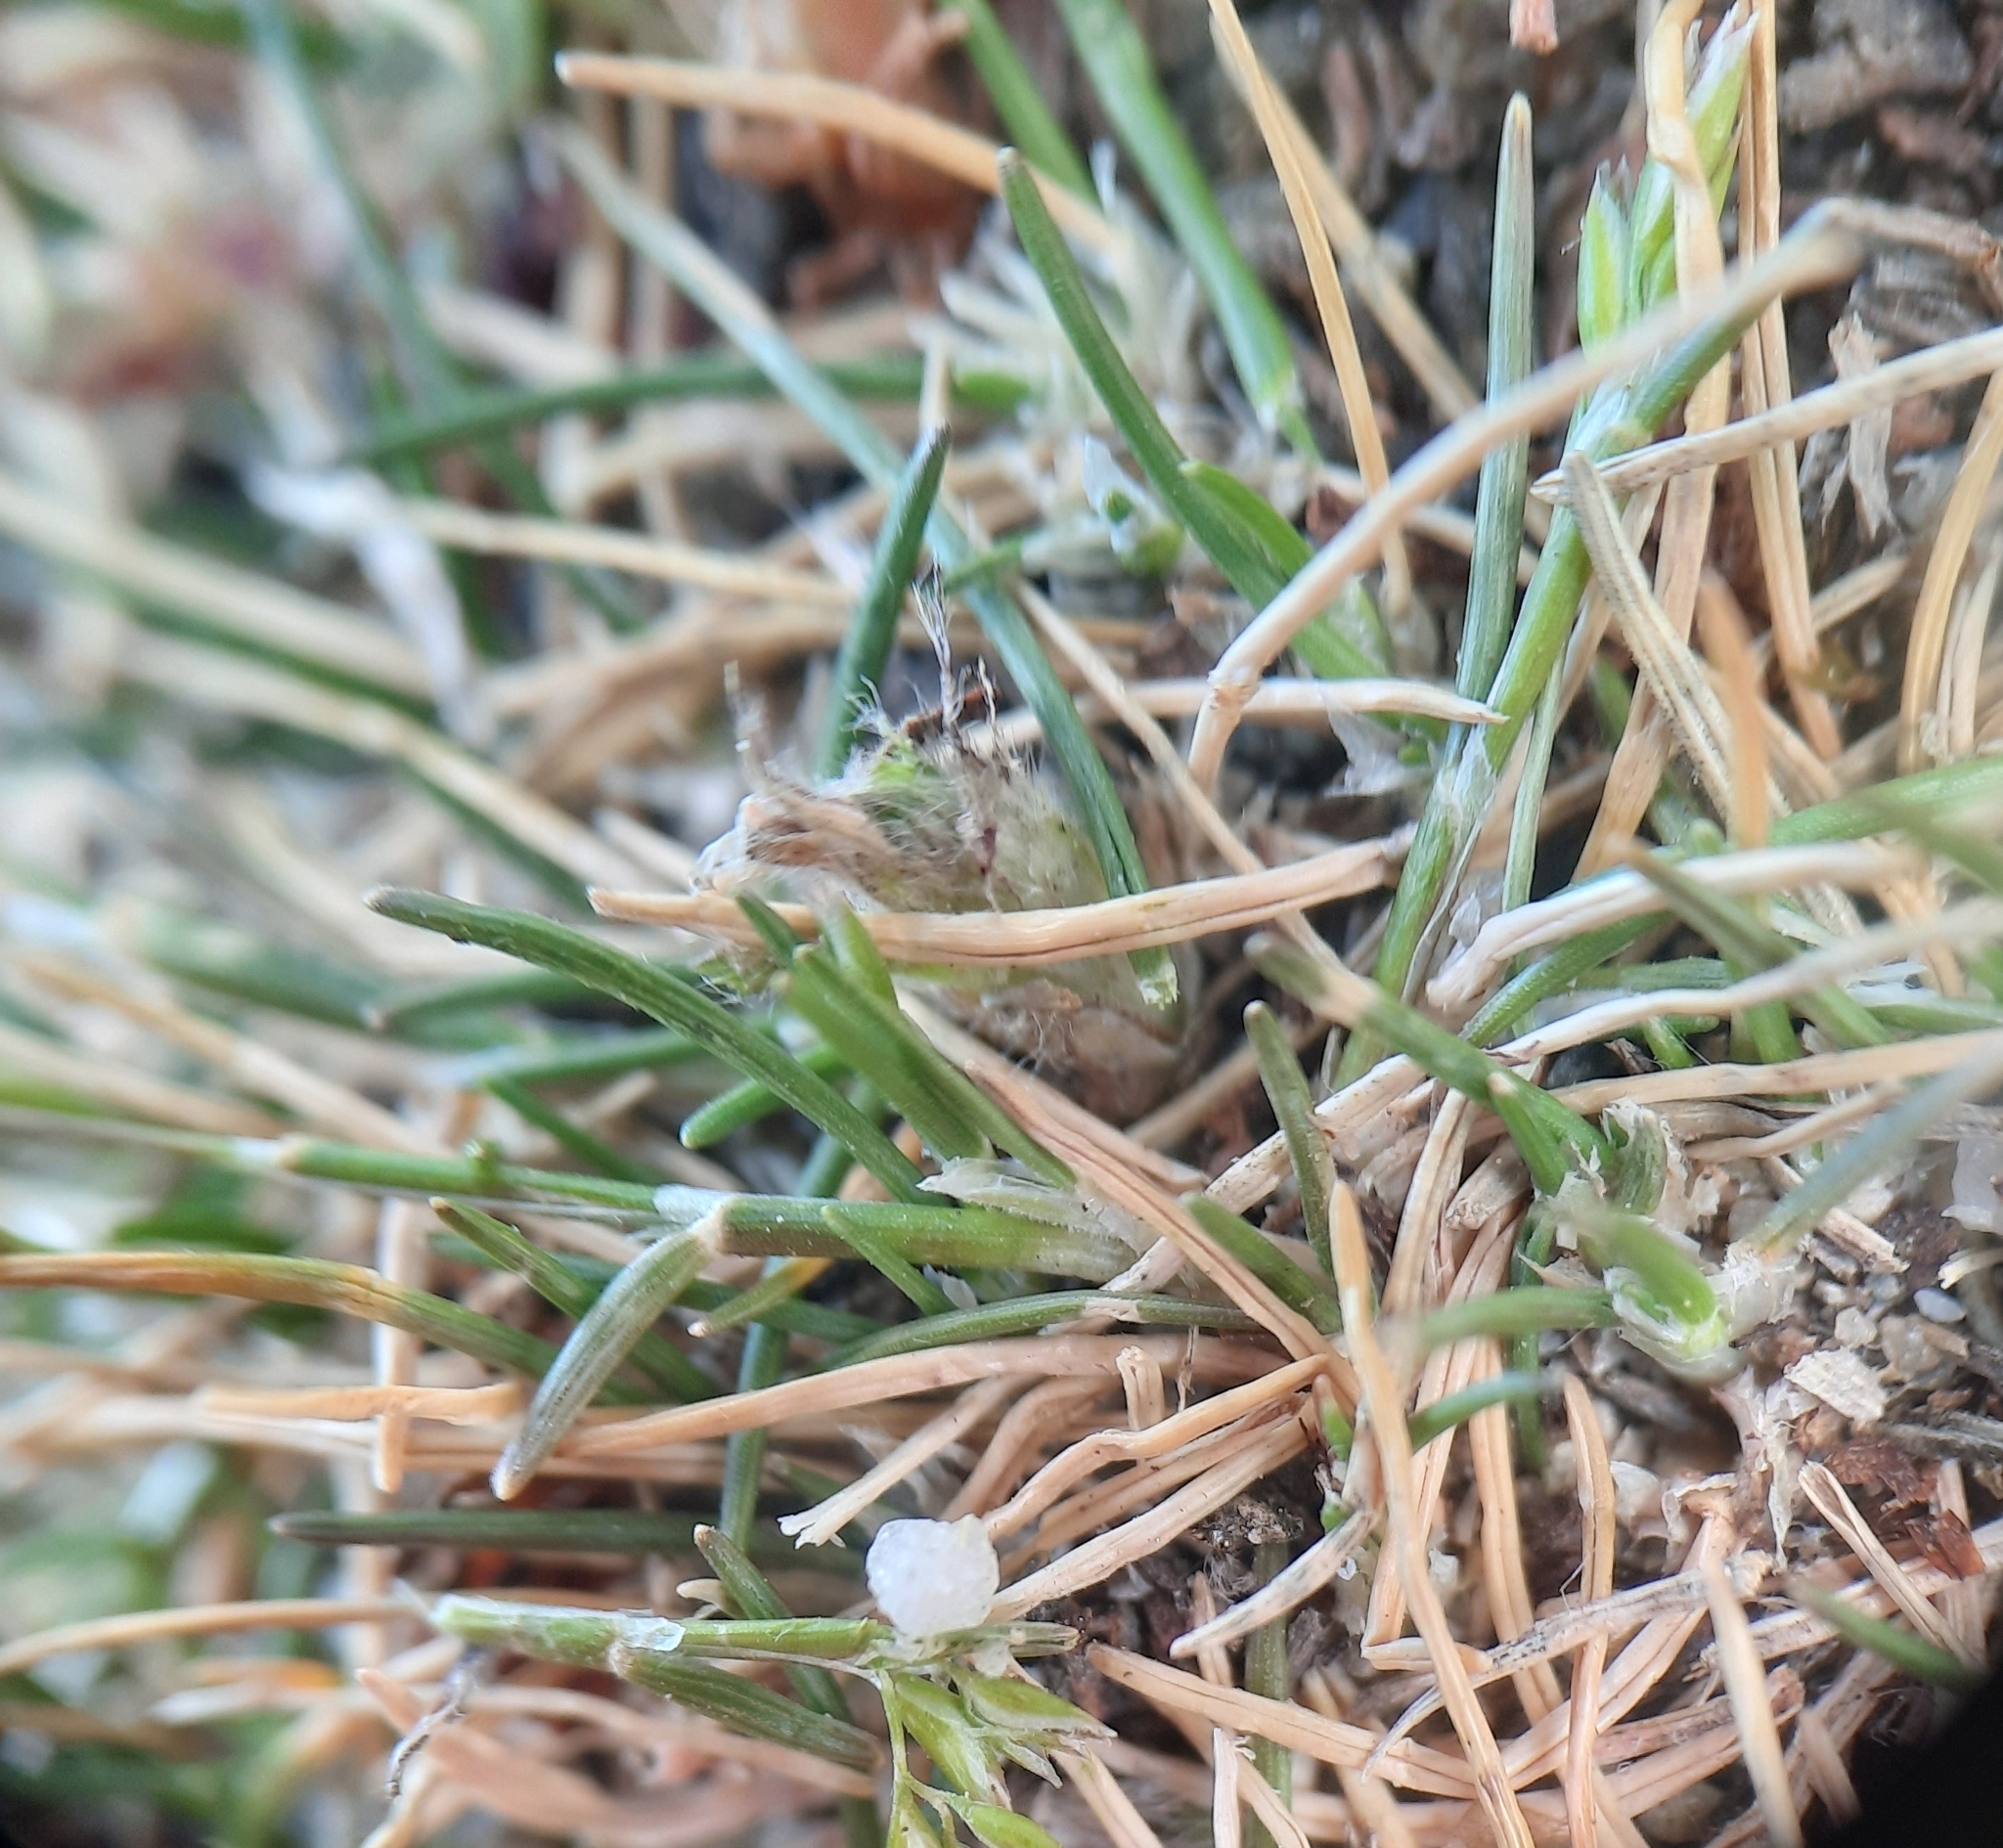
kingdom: Plantae
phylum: Tracheophyta
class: Liliopsida
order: Poales
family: Poaceae
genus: Poa
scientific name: Poa maniototo
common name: Desert poa
